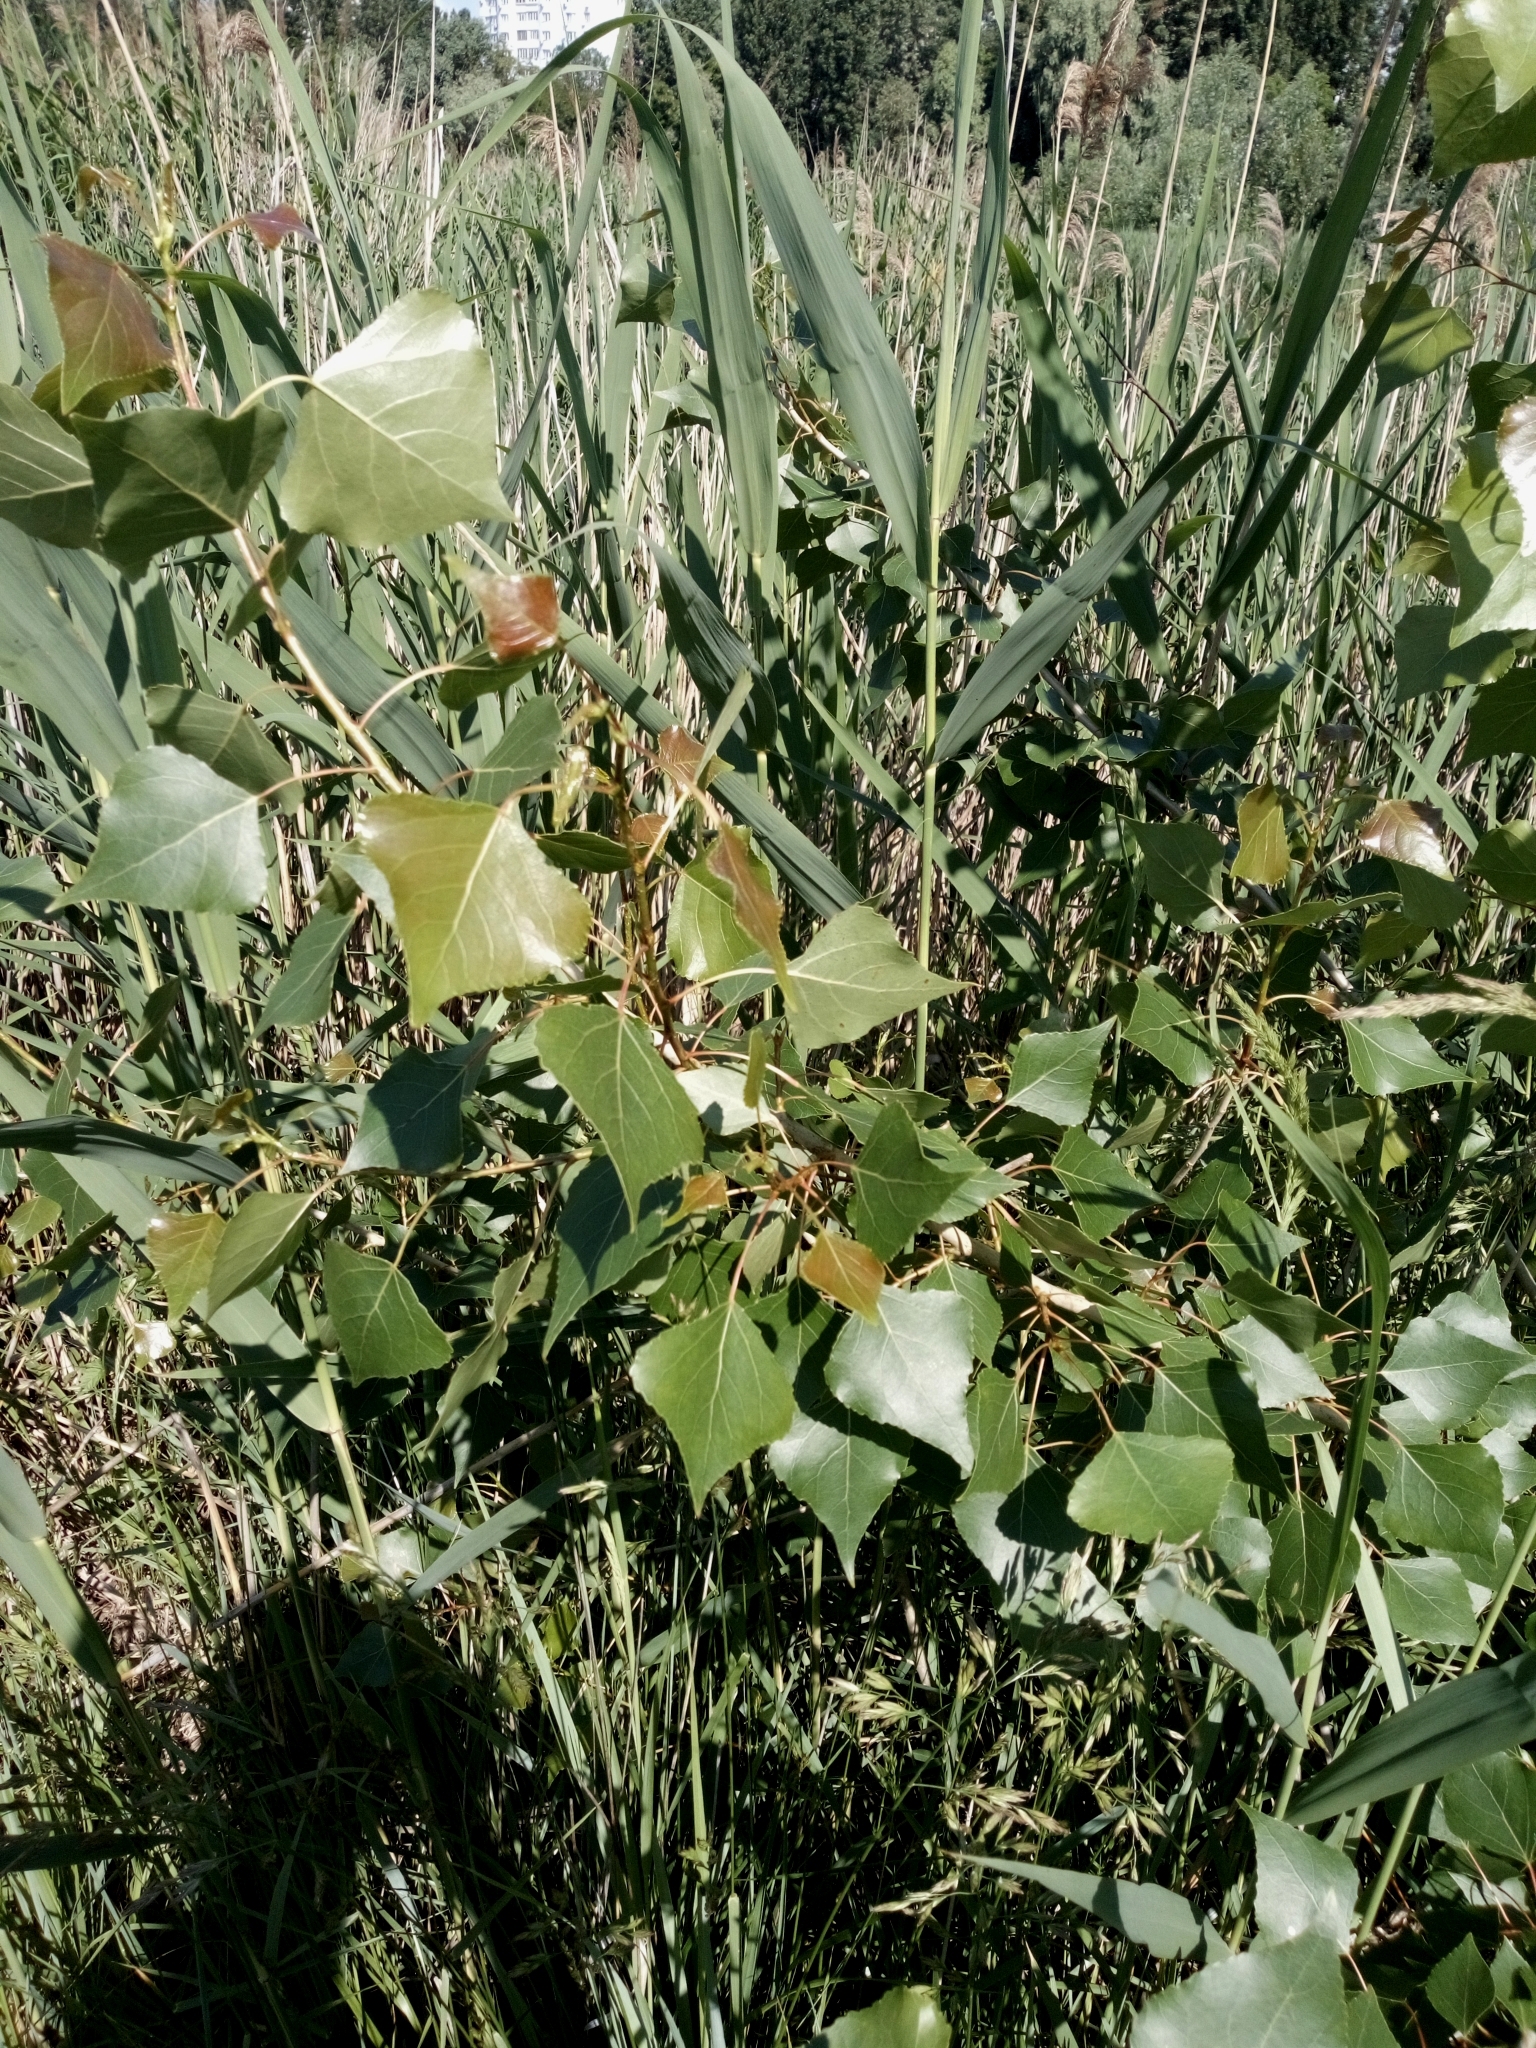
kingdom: Plantae
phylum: Tracheophyta
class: Magnoliopsida
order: Malpighiales
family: Salicaceae
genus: Populus
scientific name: Populus nigra
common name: Black poplar
